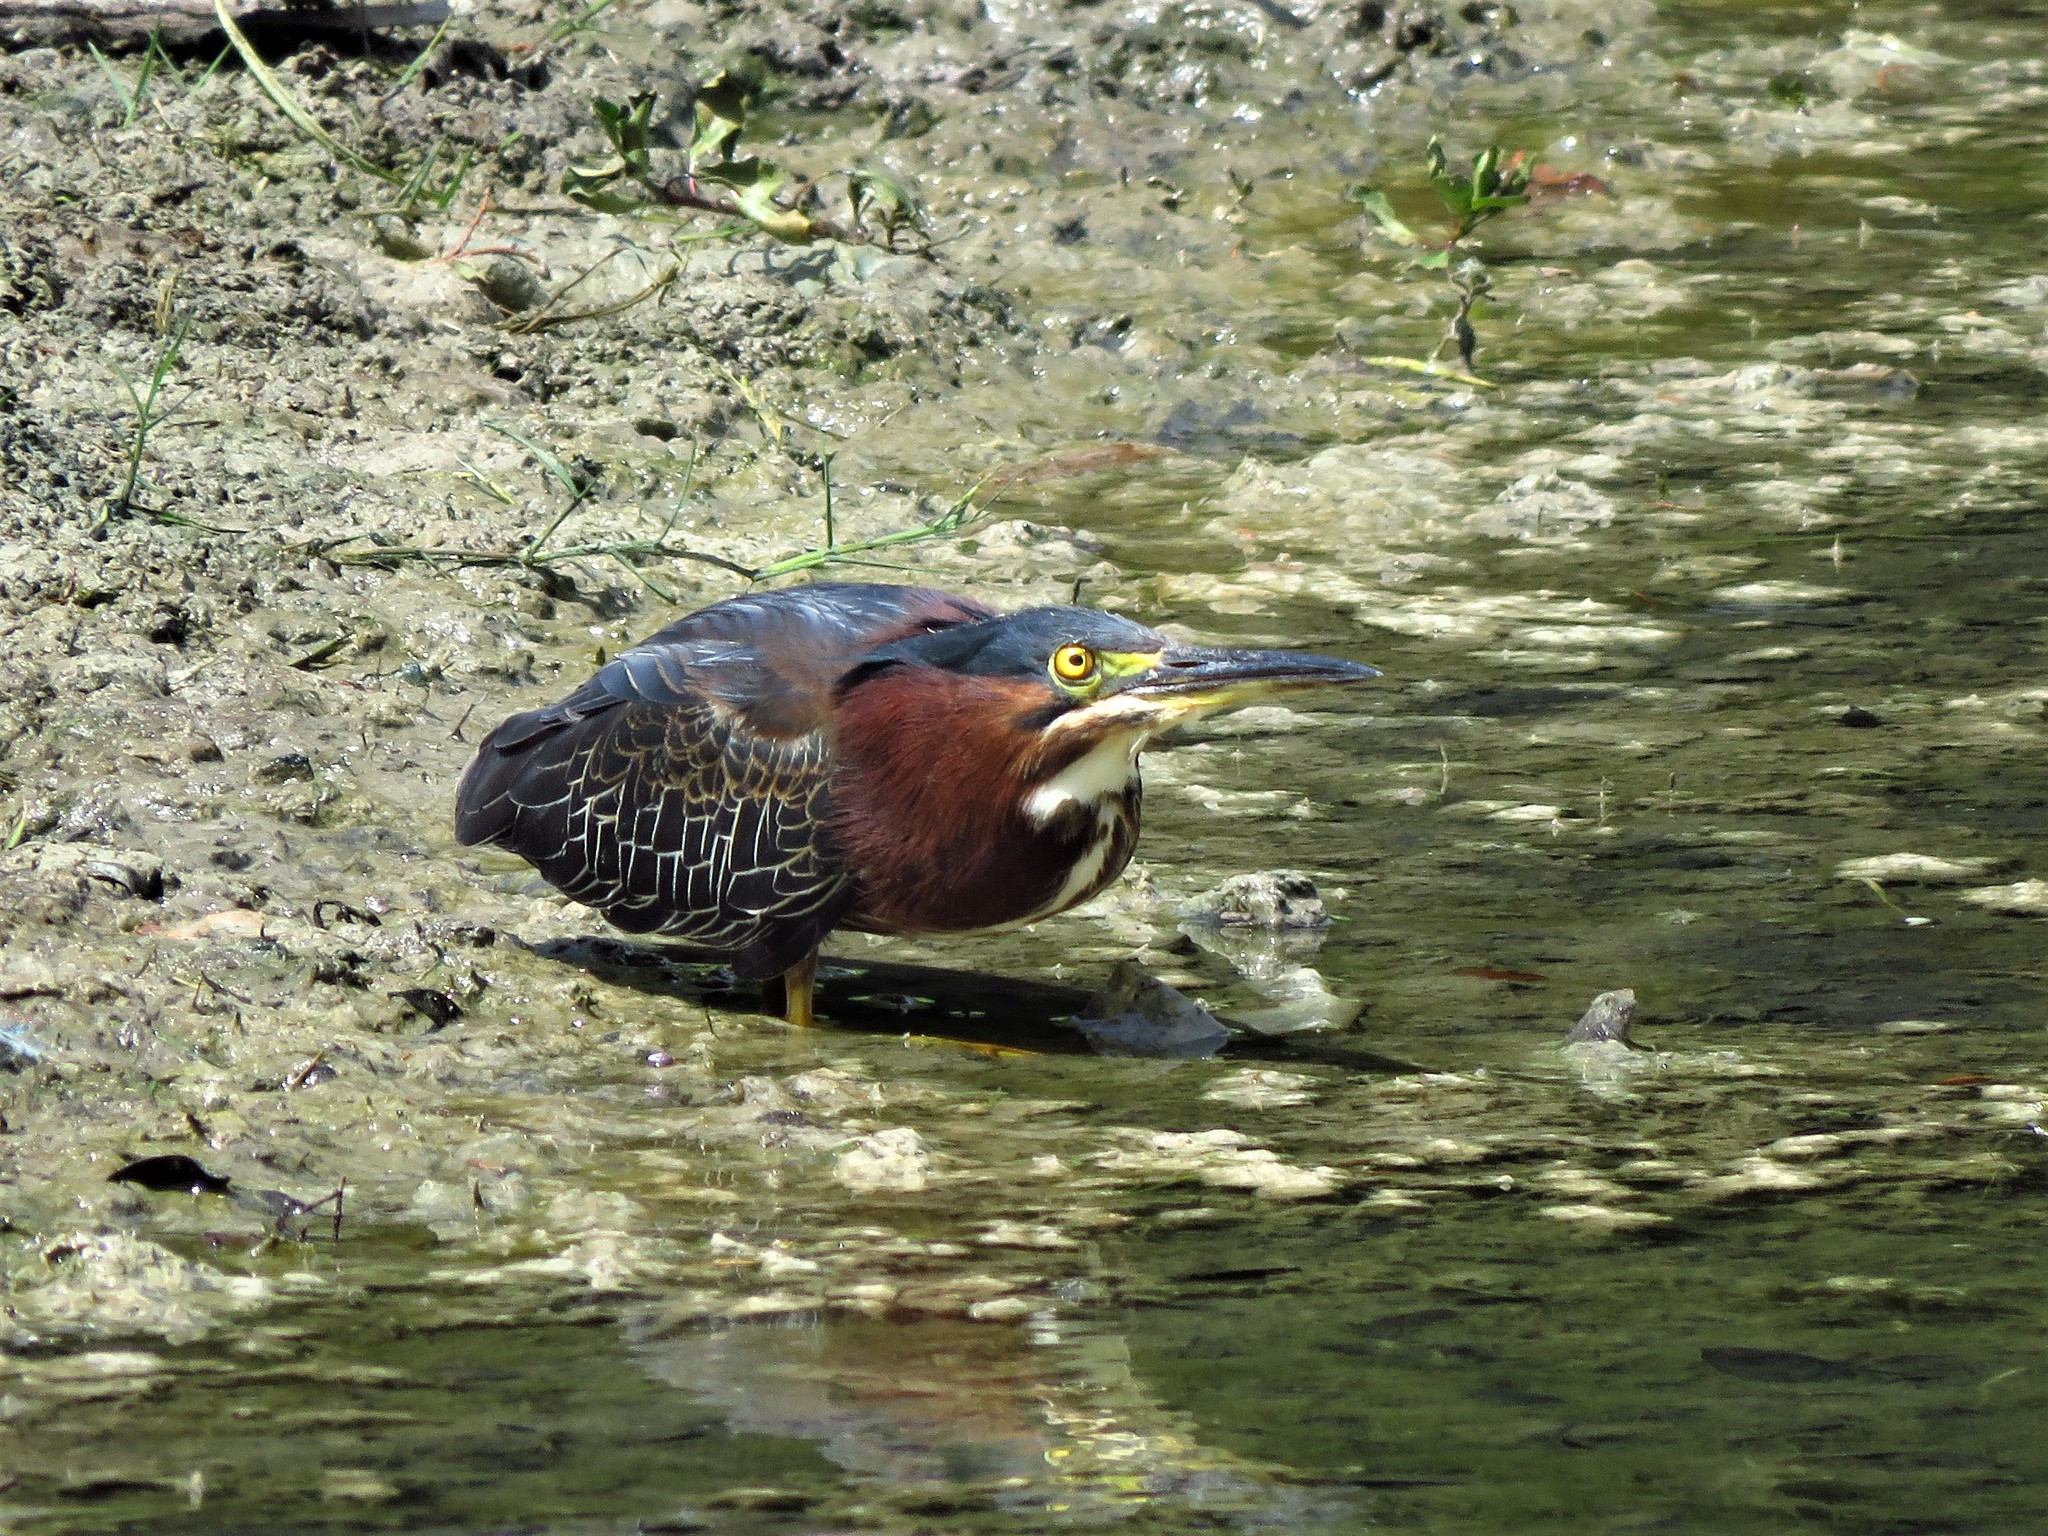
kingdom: Animalia
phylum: Chordata
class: Aves
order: Pelecaniformes
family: Ardeidae
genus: Butorides
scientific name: Butorides virescens
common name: Green heron
